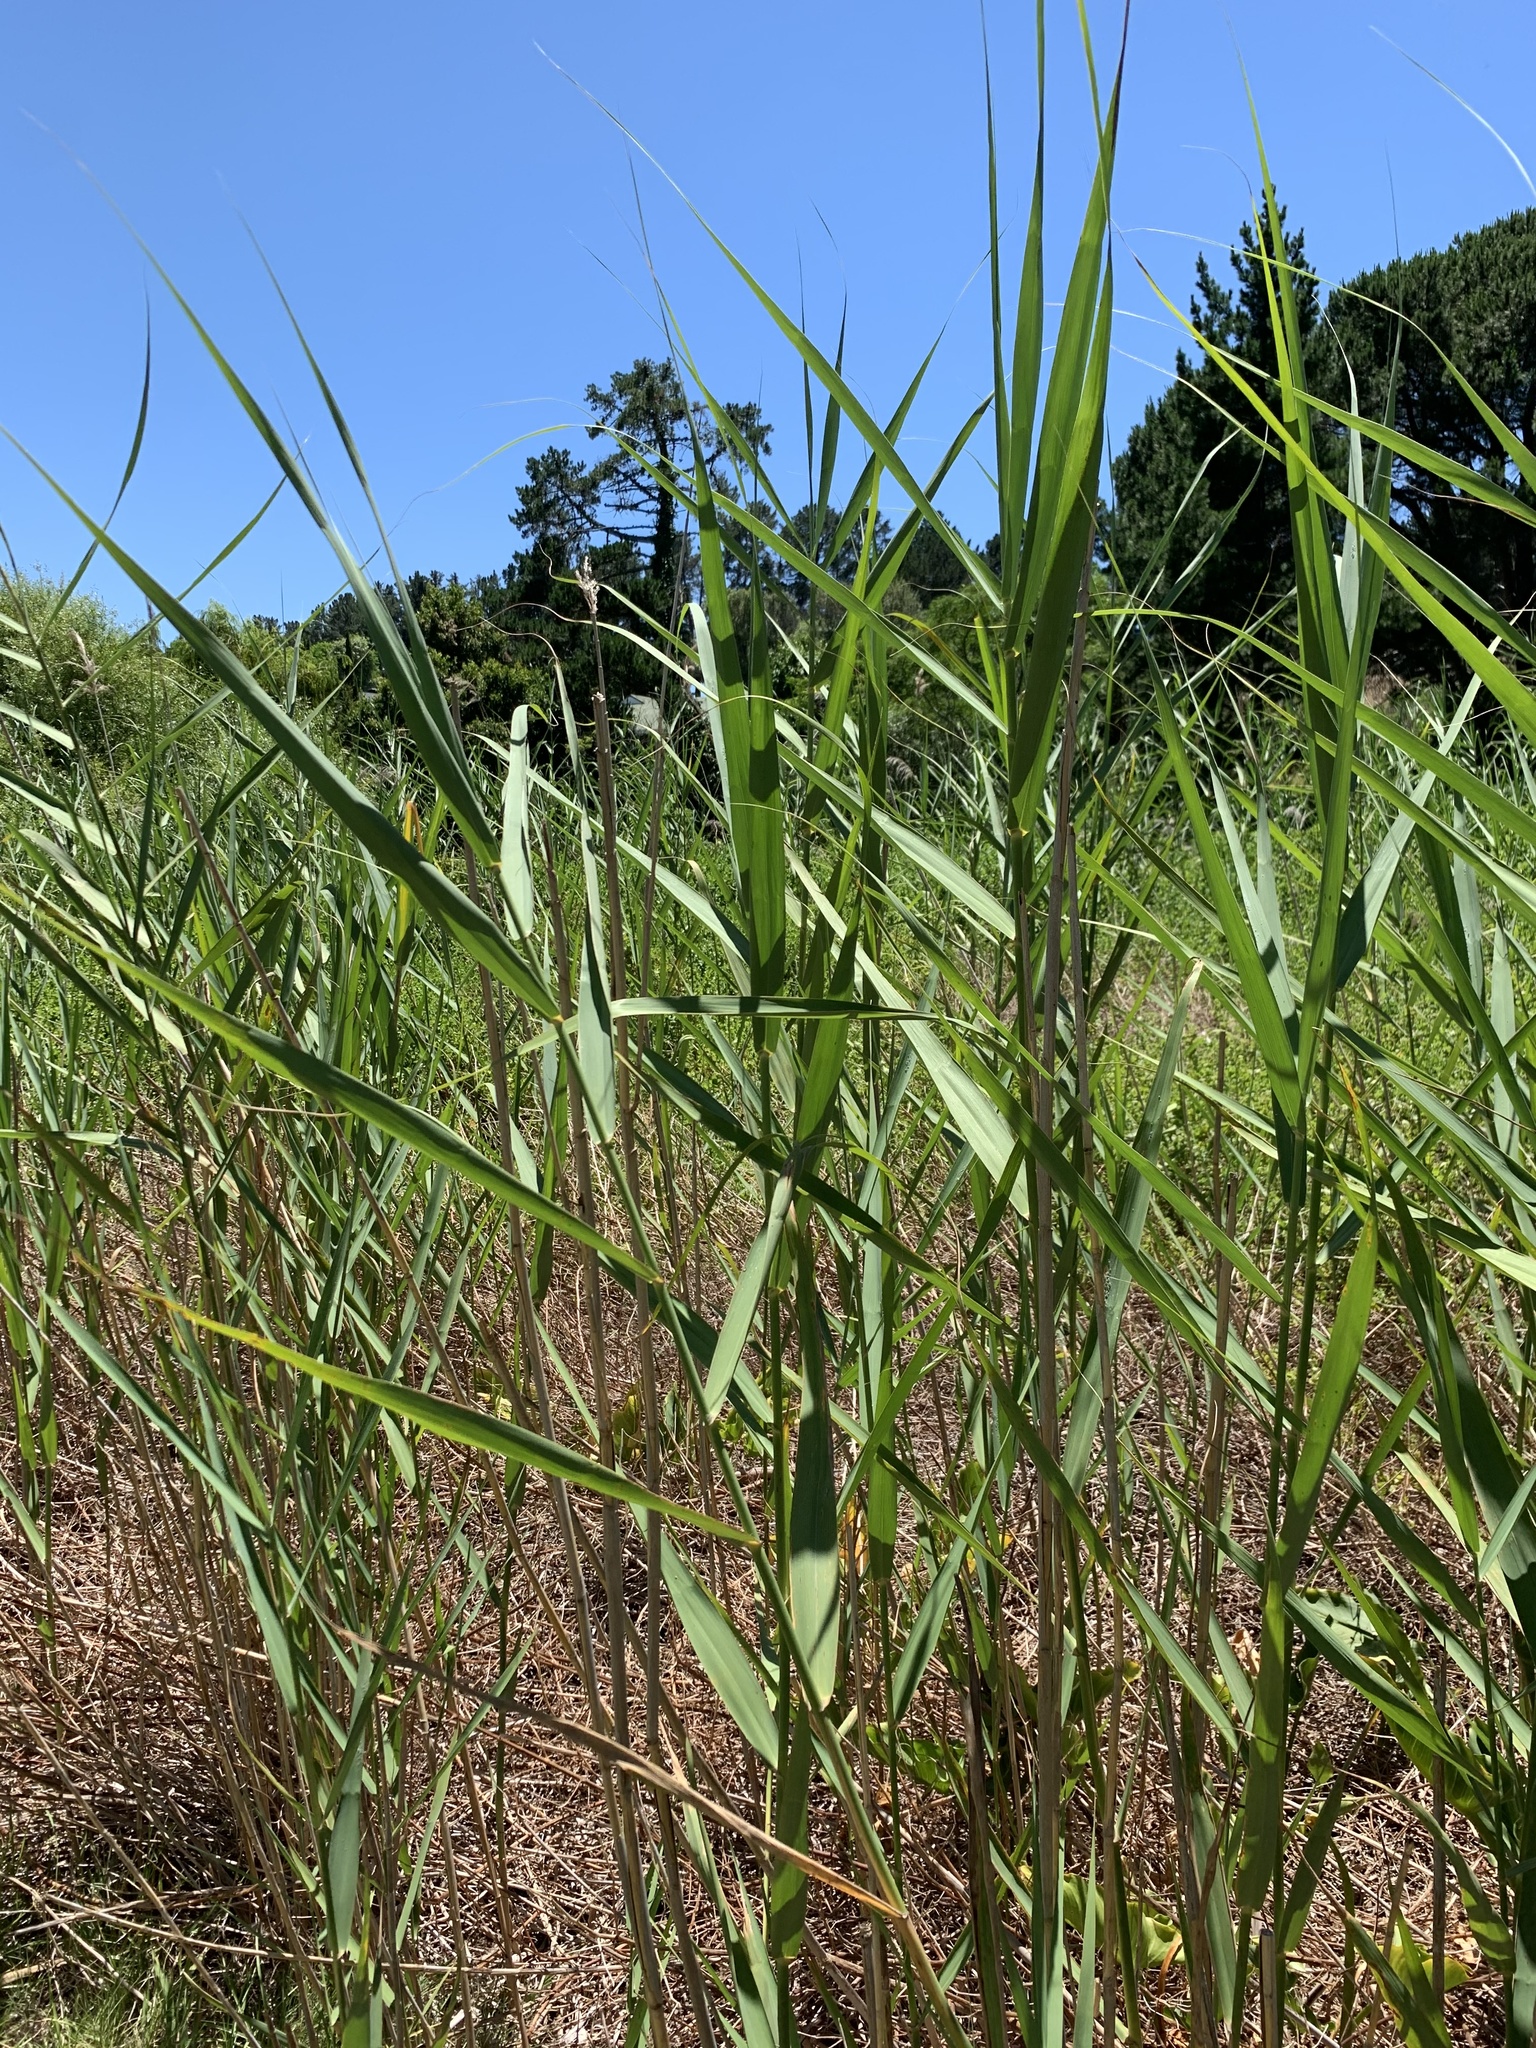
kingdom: Plantae
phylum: Tracheophyta
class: Liliopsida
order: Poales
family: Poaceae
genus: Phragmites
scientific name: Phragmites australis
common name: Common reed
